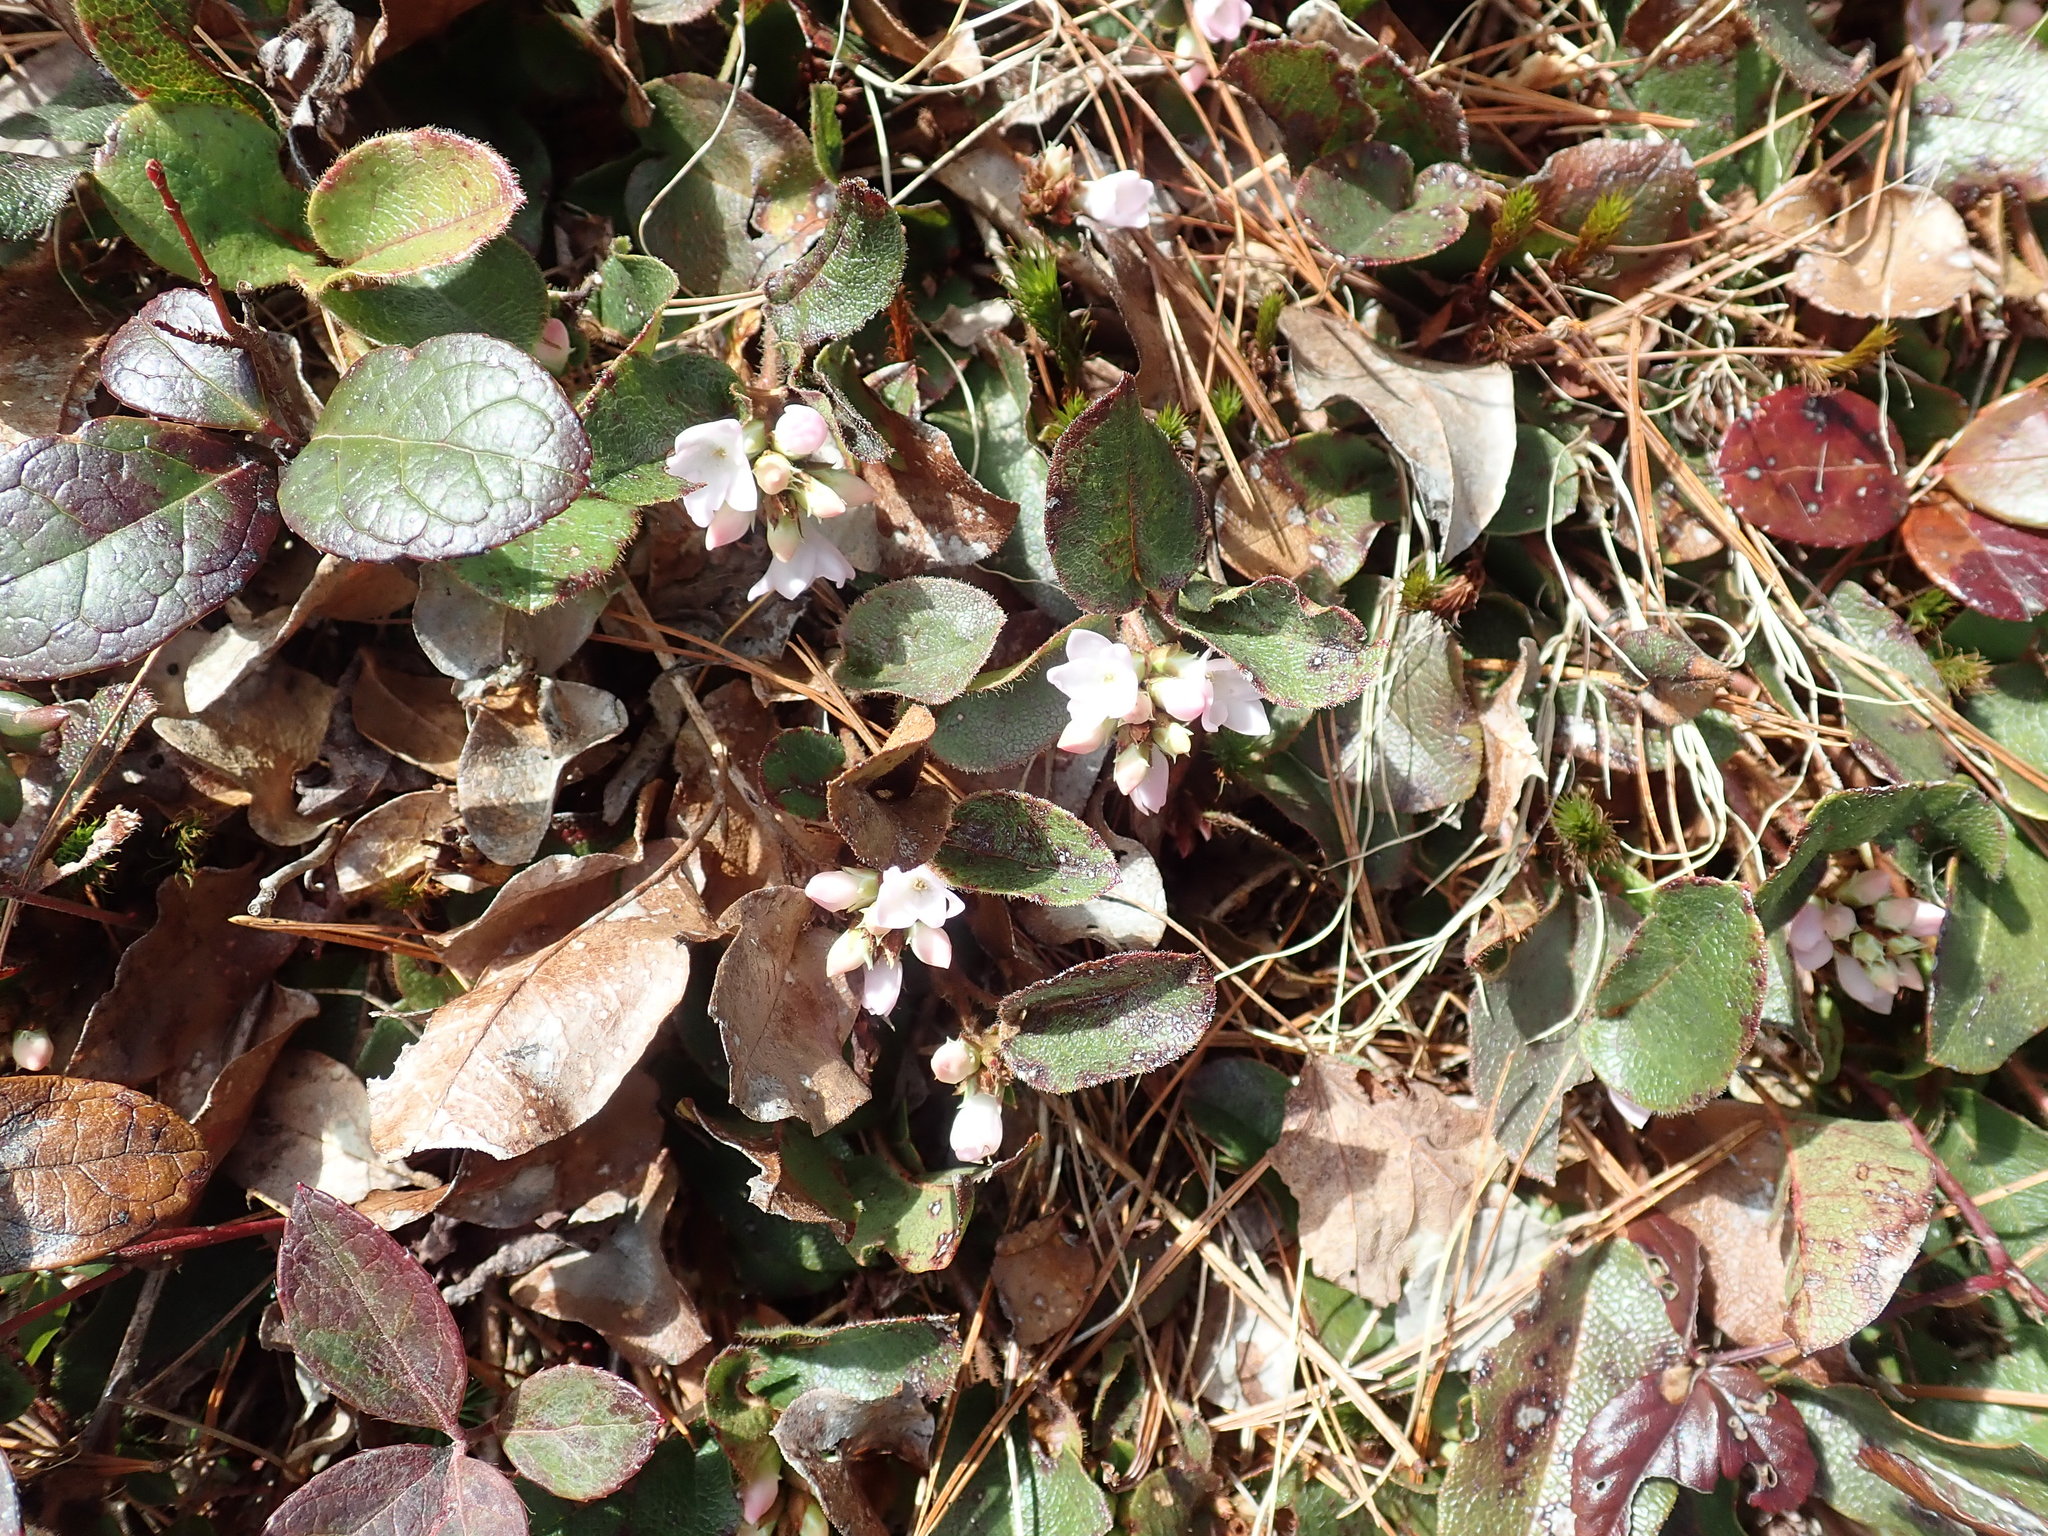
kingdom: Plantae
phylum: Tracheophyta
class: Magnoliopsida
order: Ericales
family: Ericaceae
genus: Epigaea
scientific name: Epigaea repens
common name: Gravelroot
